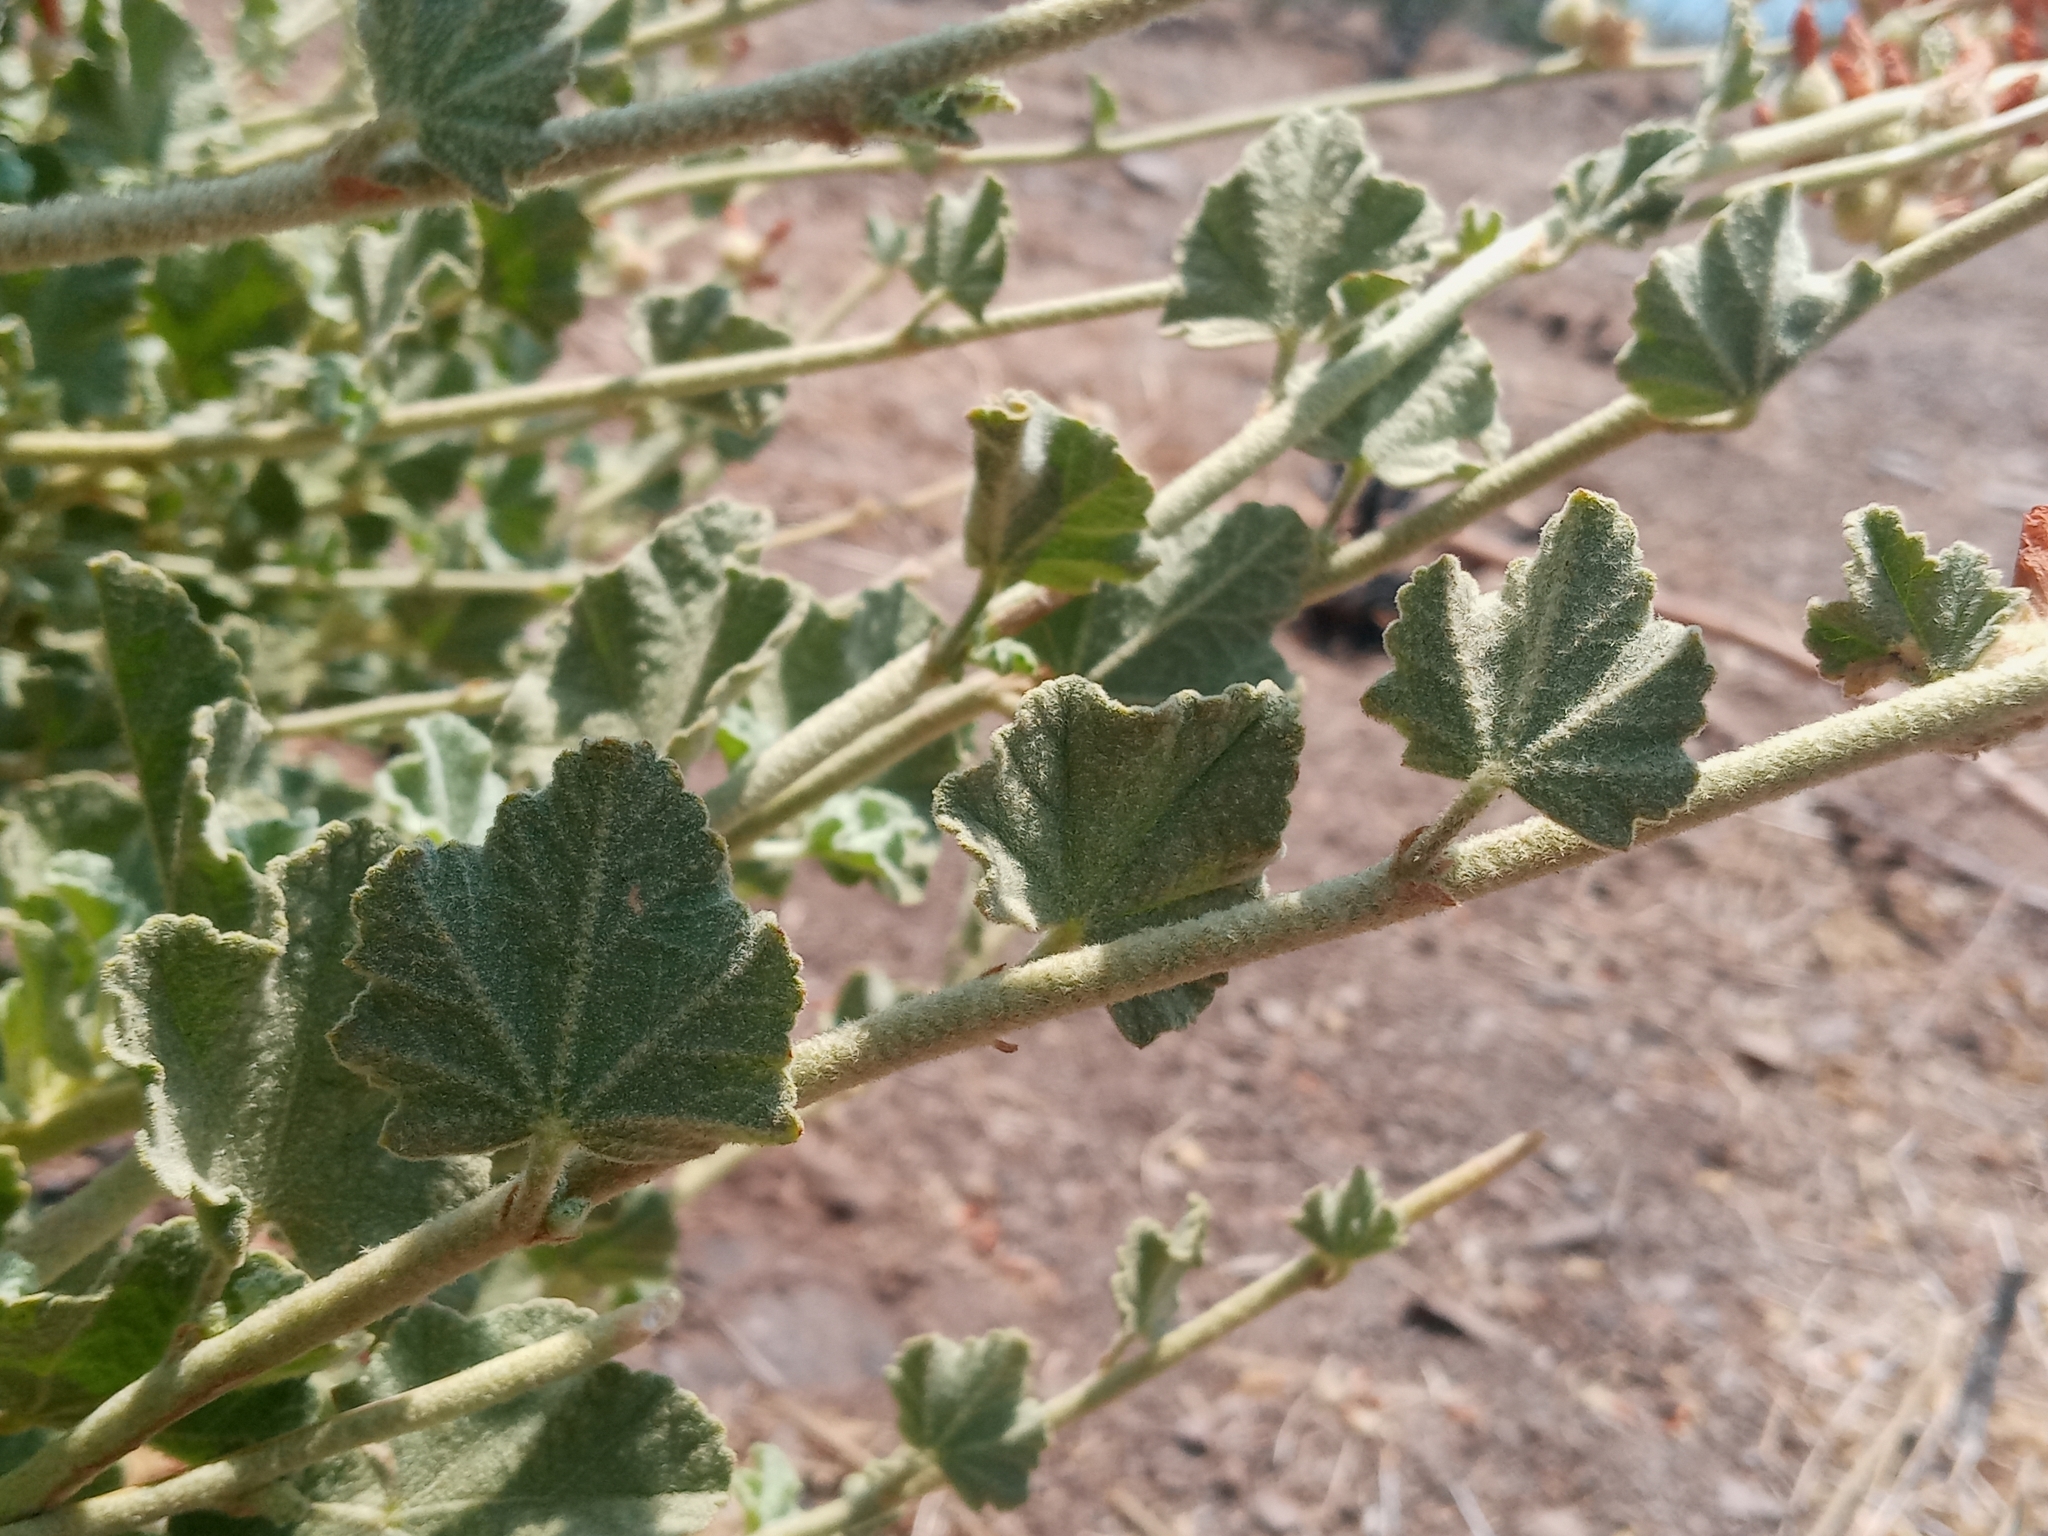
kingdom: Plantae
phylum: Tracheophyta
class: Magnoliopsida
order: Malvales
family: Malvaceae
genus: Malacothamnus
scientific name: Malacothamnus fremontii
